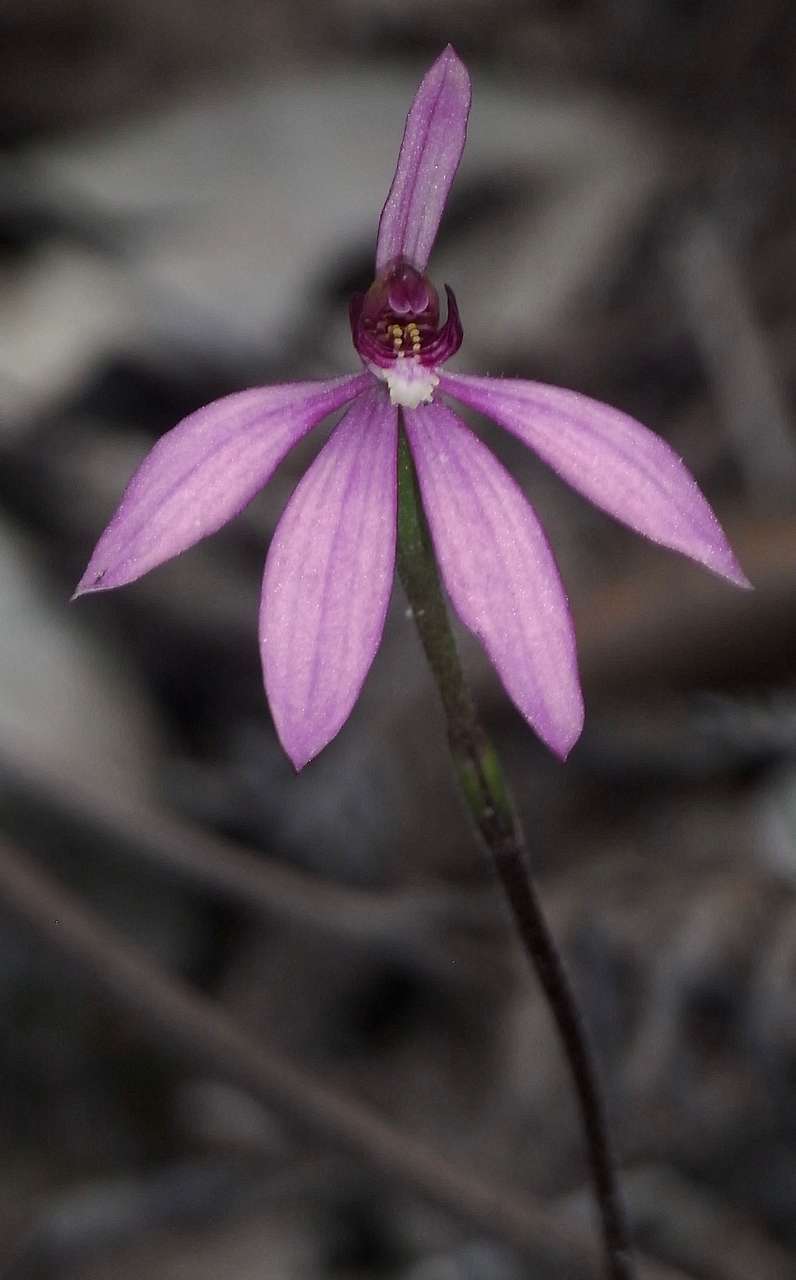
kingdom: Plantae
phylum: Tracheophyta
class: Liliopsida
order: Asparagales
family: Orchidaceae
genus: Caladenia
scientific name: Caladenia carnea
